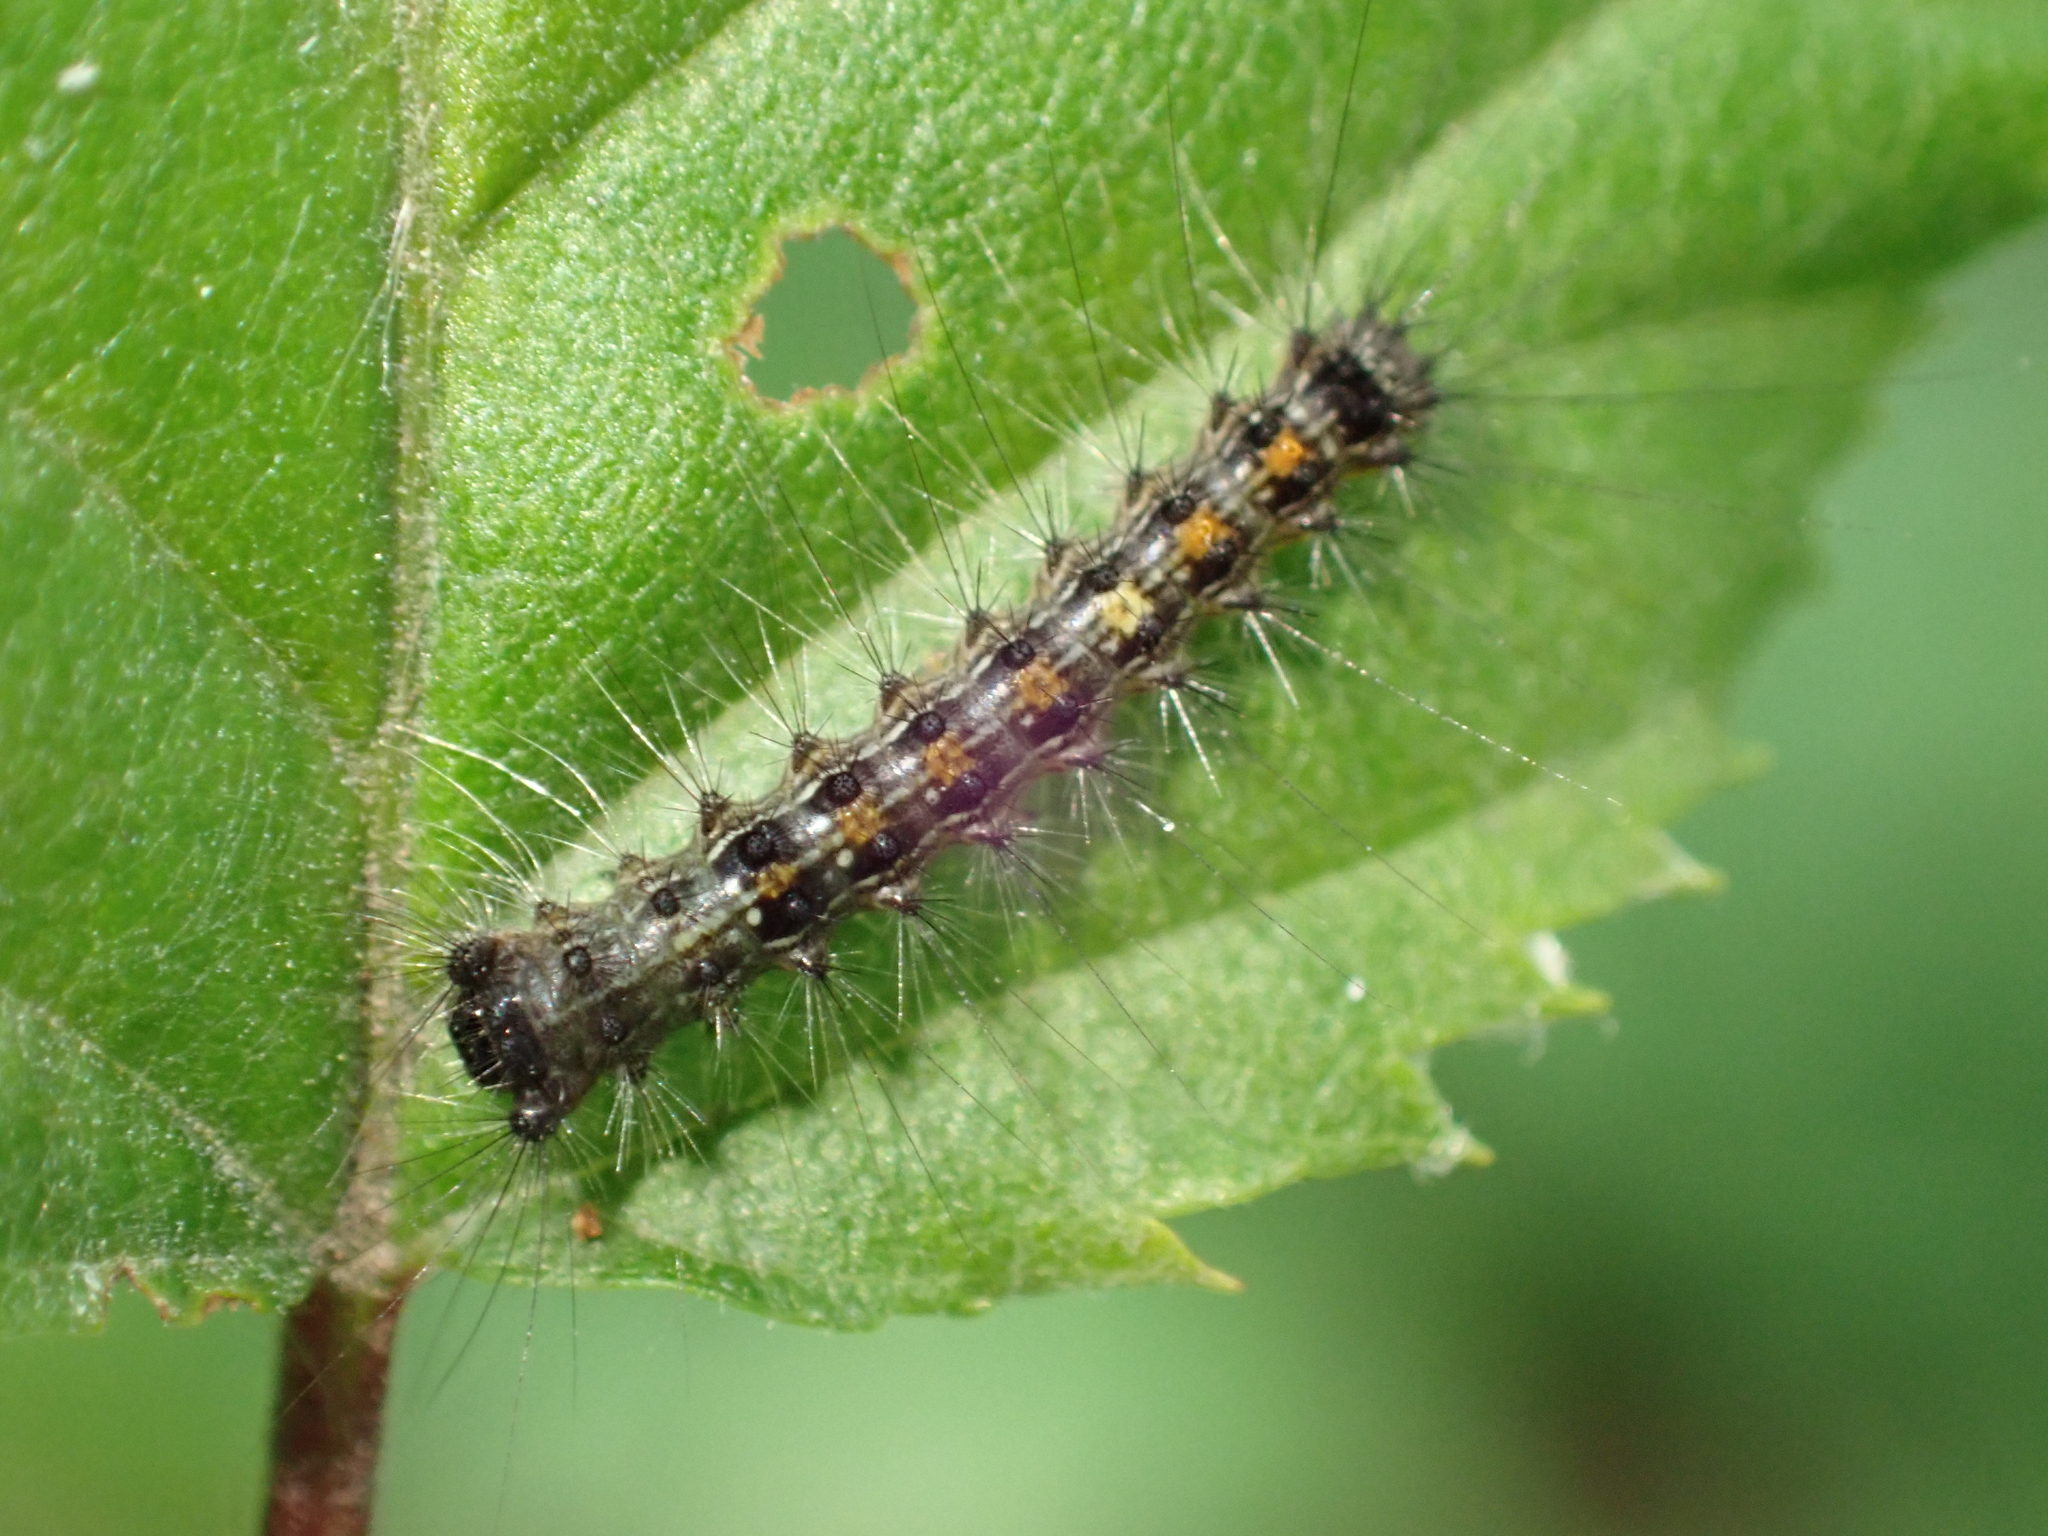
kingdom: Animalia
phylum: Arthropoda
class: Insecta
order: Lepidoptera
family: Erebidae
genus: Lymantria
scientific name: Lymantria dispar
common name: Gypsy moth
